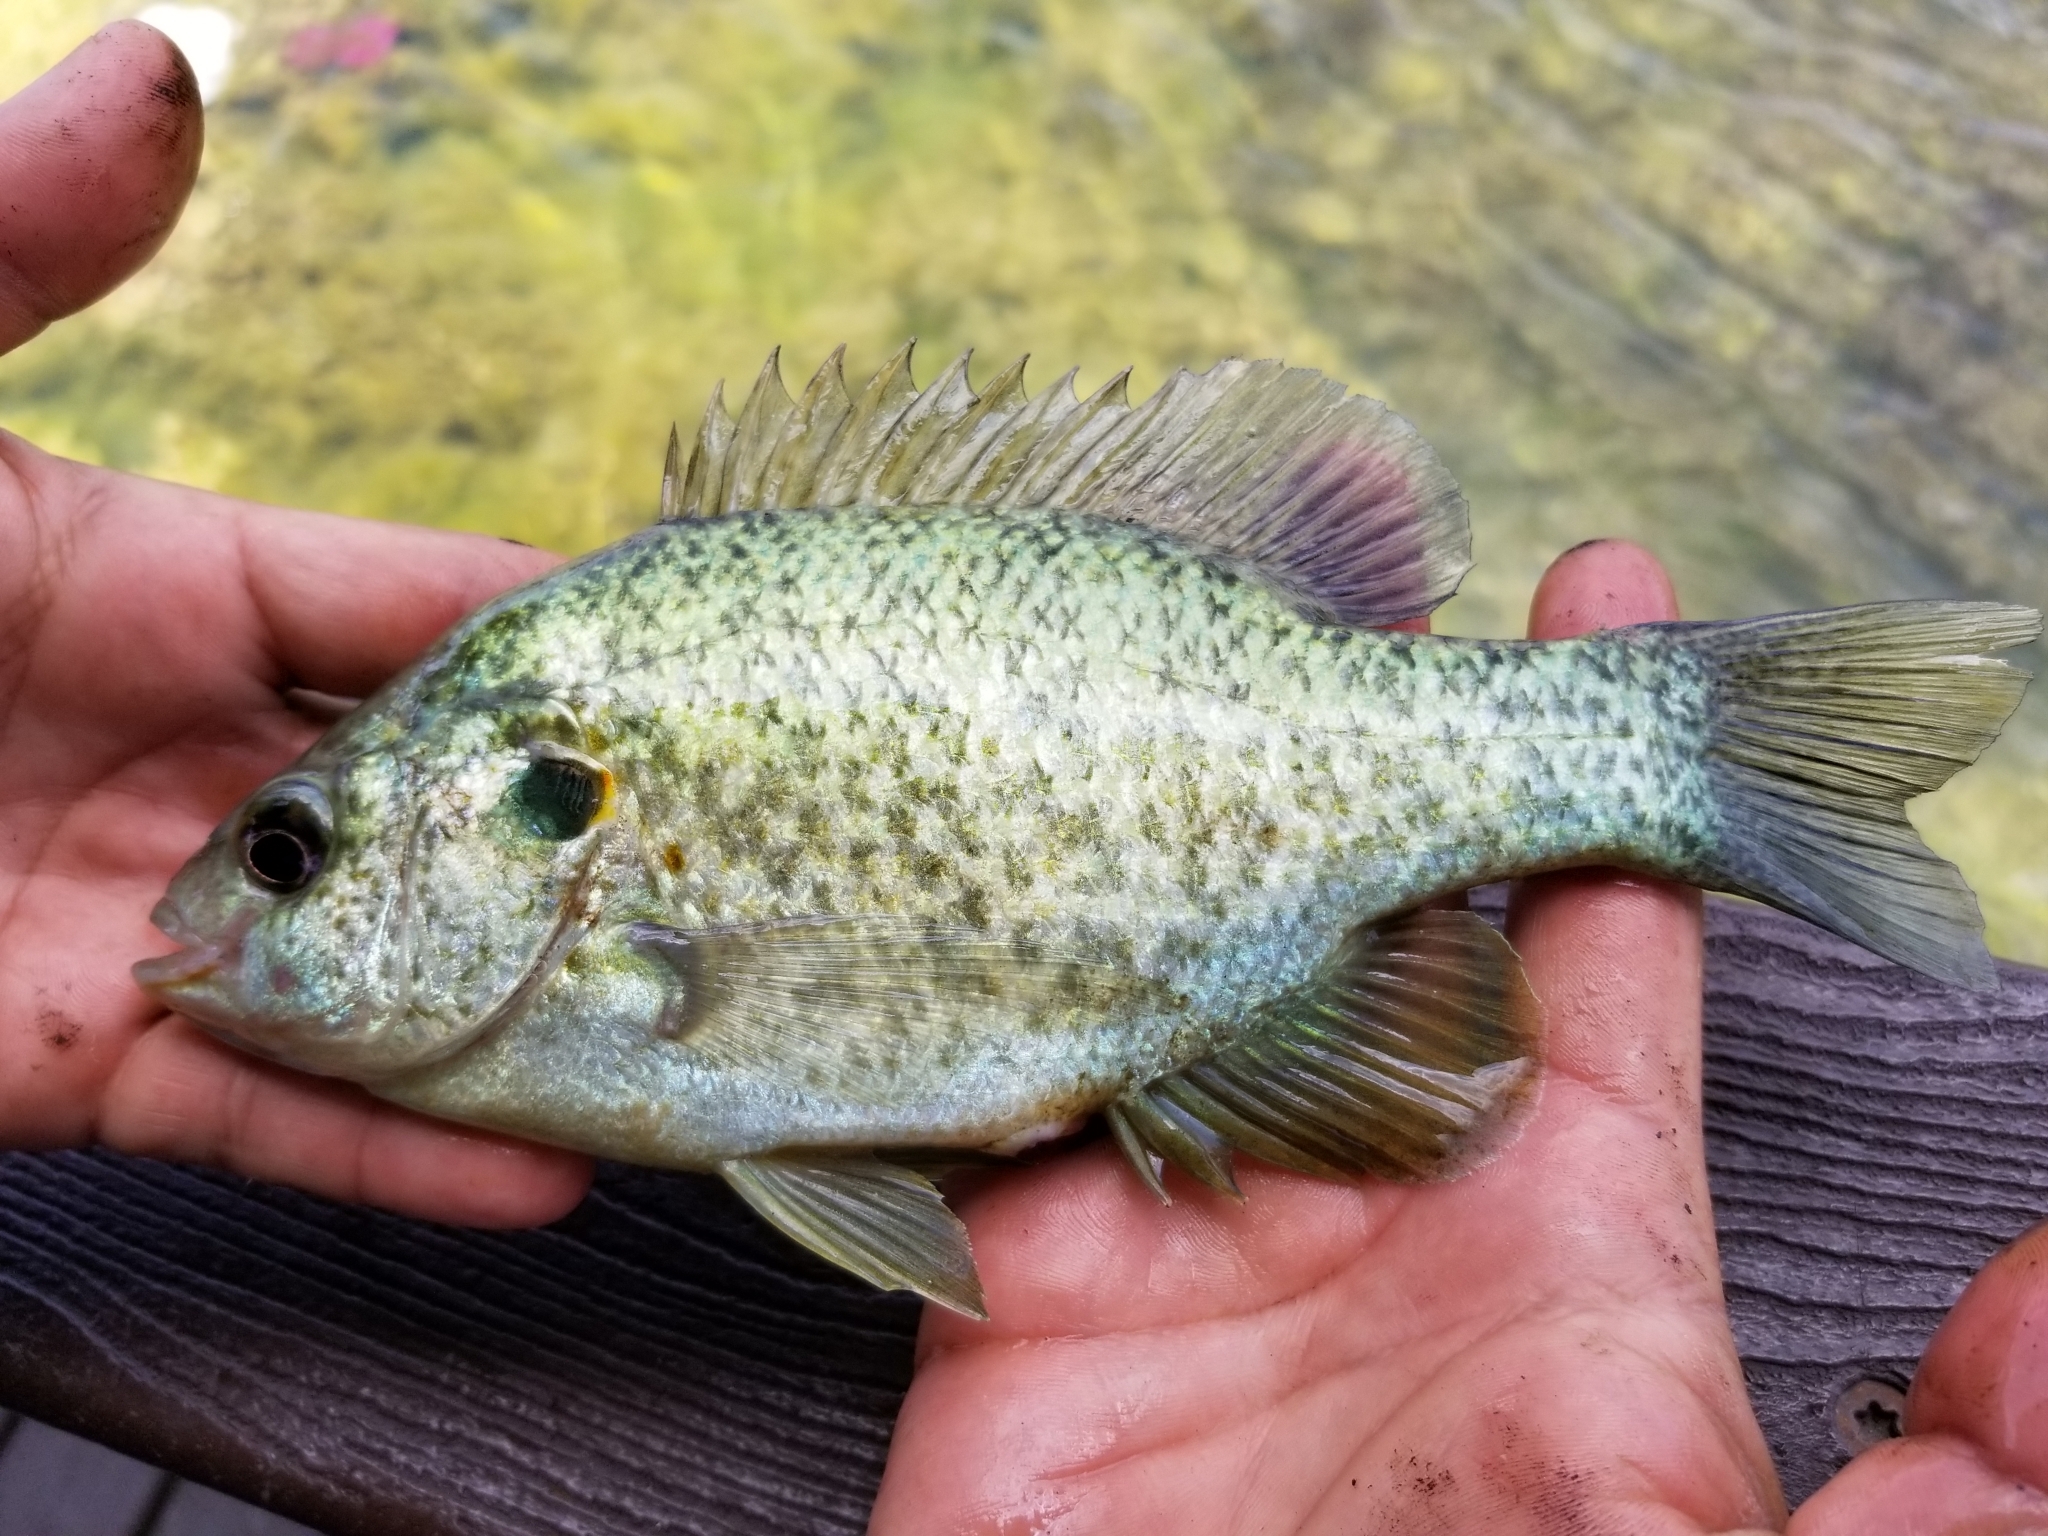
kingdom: Animalia
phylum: Chordata
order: Perciformes
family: Centrarchidae
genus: Lepomis
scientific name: Lepomis microlophus
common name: Redear sunfish
